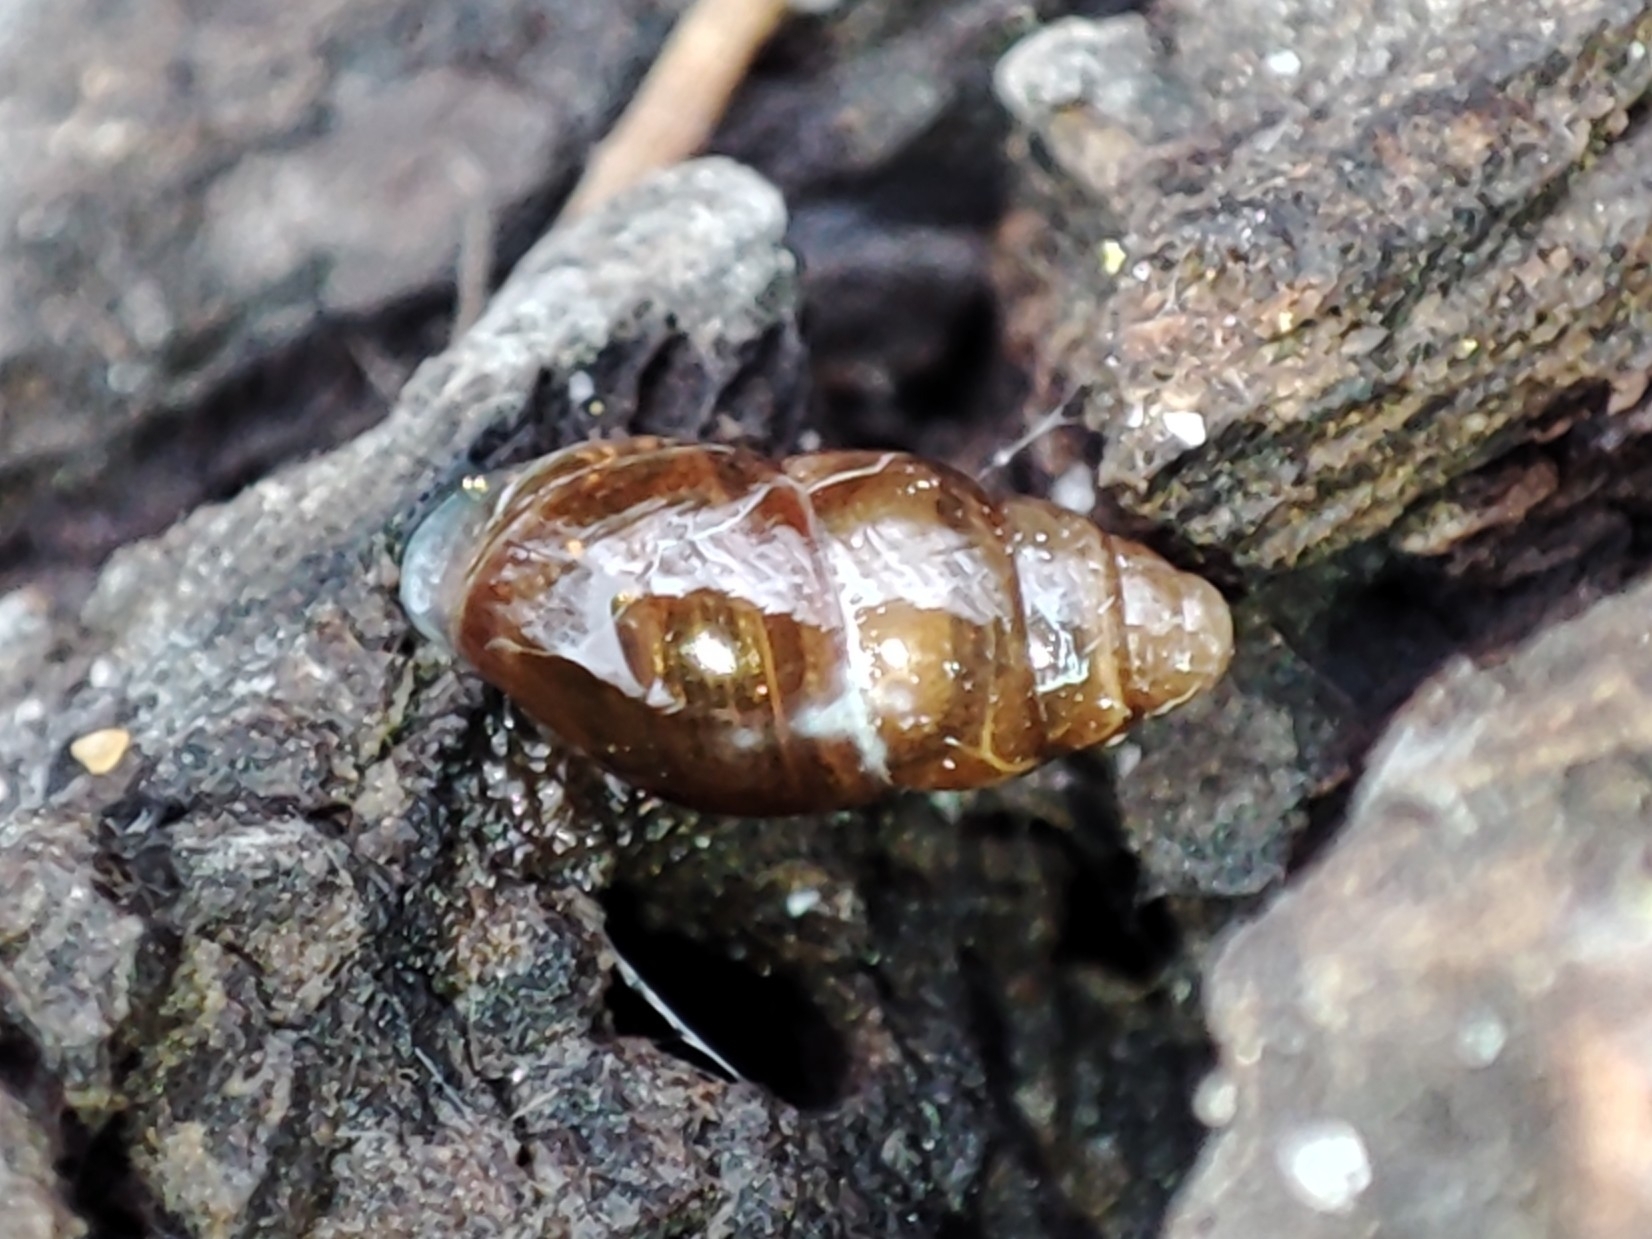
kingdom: Animalia
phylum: Mollusca
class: Gastropoda
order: Stylommatophora
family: Cochlicopidae
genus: Cochlicopa
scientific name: Cochlicopa lubrica
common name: Glossy pillar snail
